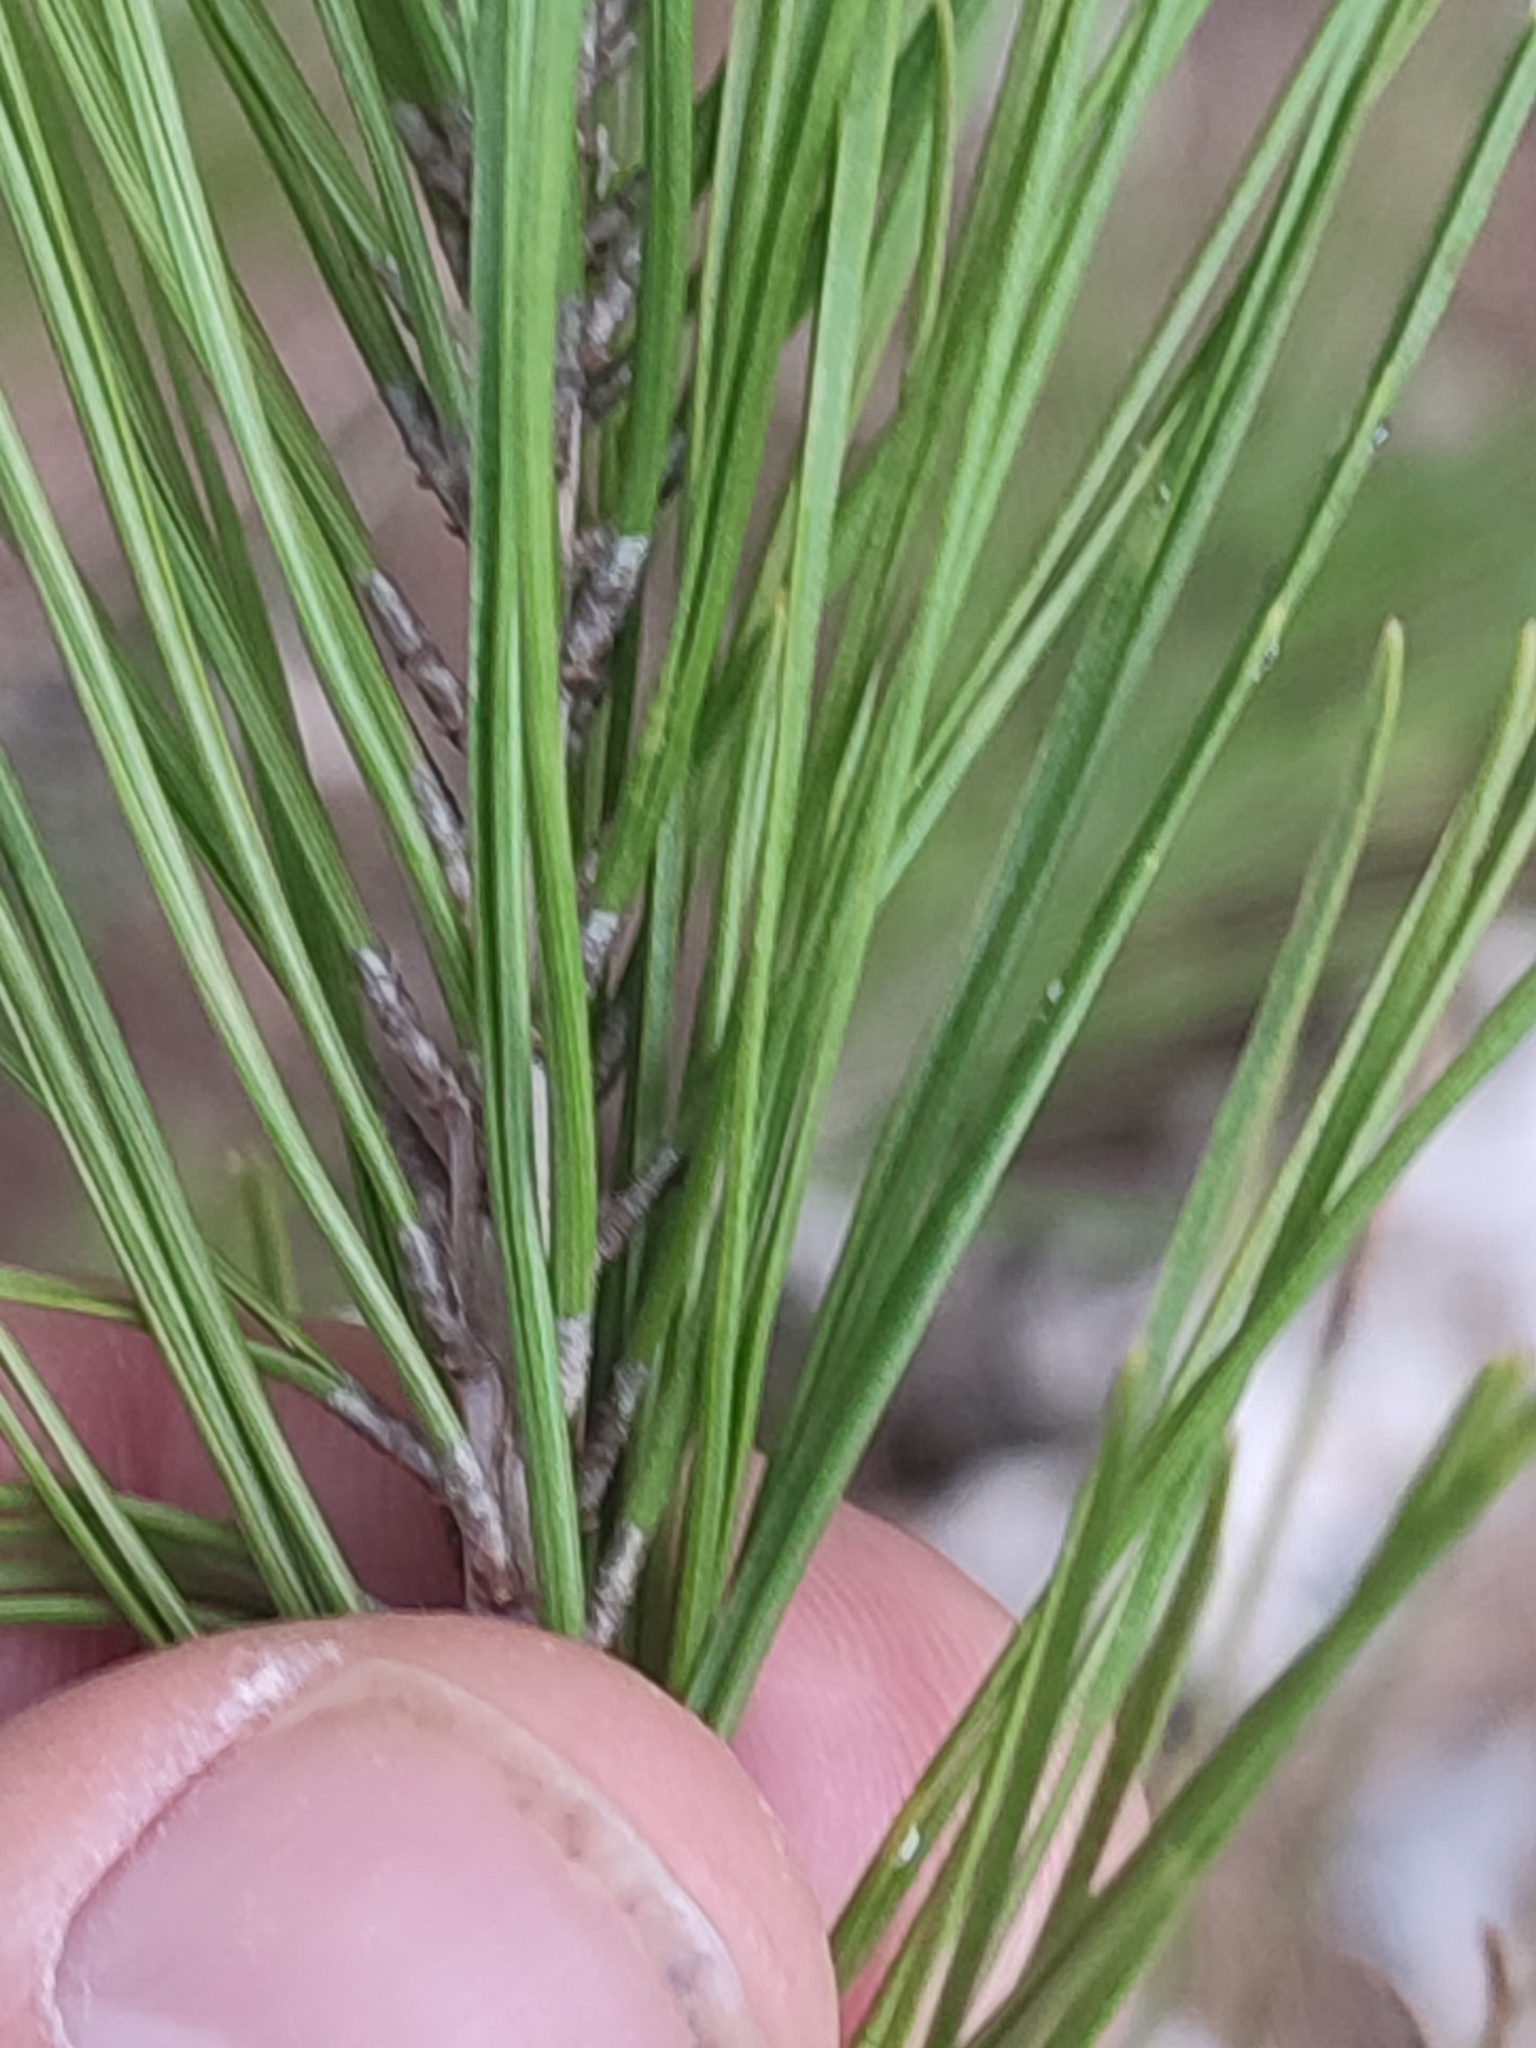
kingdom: Plantae
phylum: Tracheophyta
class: Pinopsida
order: Pinales
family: Pinaceae
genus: Pinus
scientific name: Pinus halepensis
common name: Aleppo pine
